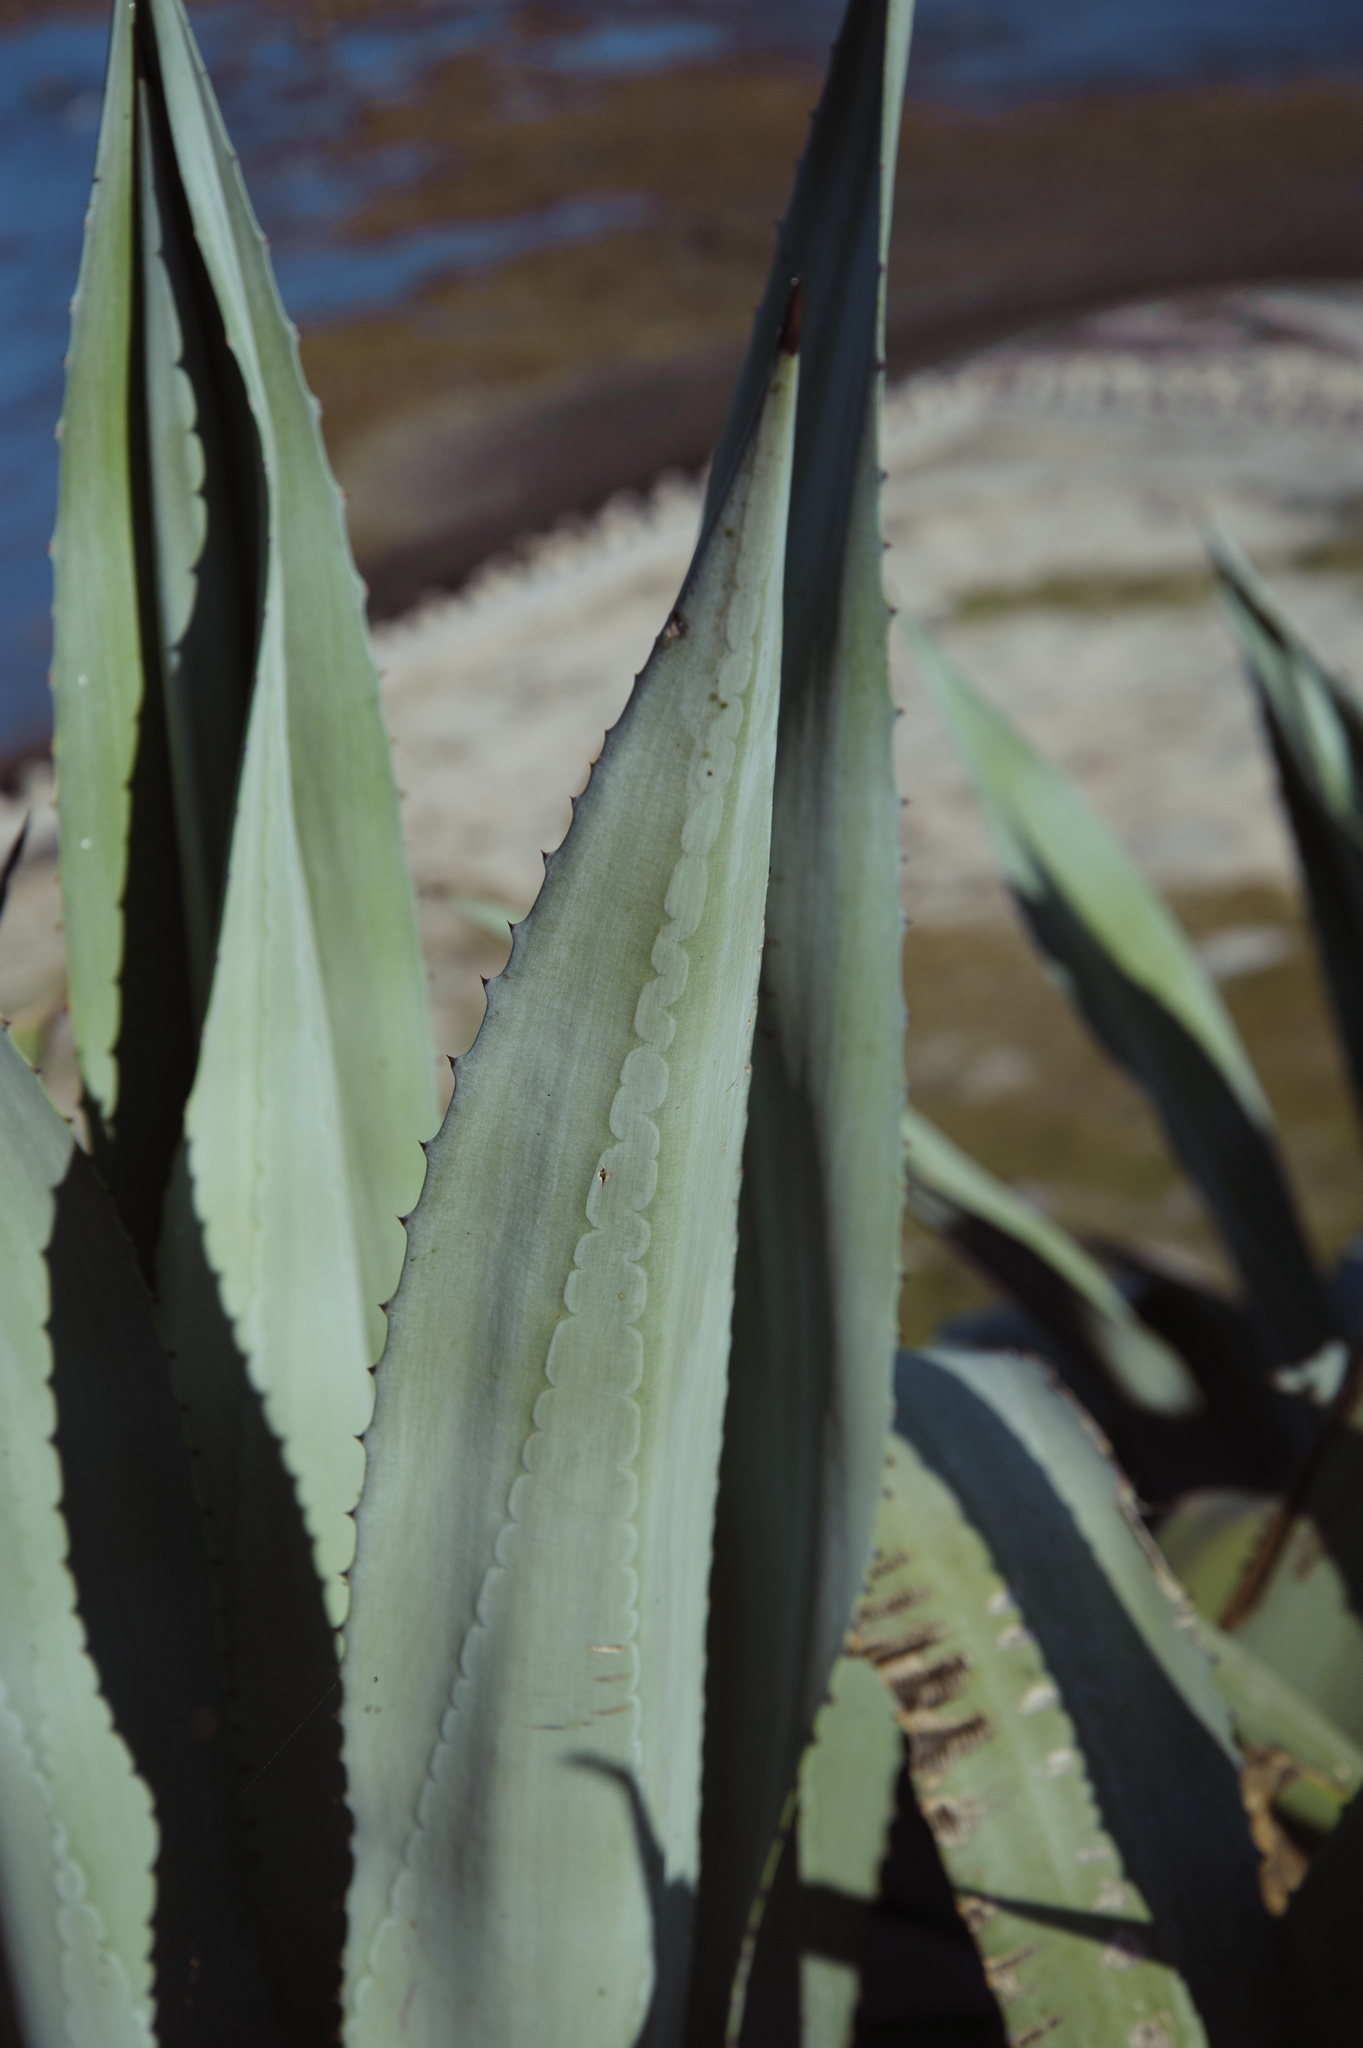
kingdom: Plantae
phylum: Tracheophyta
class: Liliopsida
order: Asparagales
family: Asparagaceae
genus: Agave
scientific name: Agave americana
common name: Centuryplant
